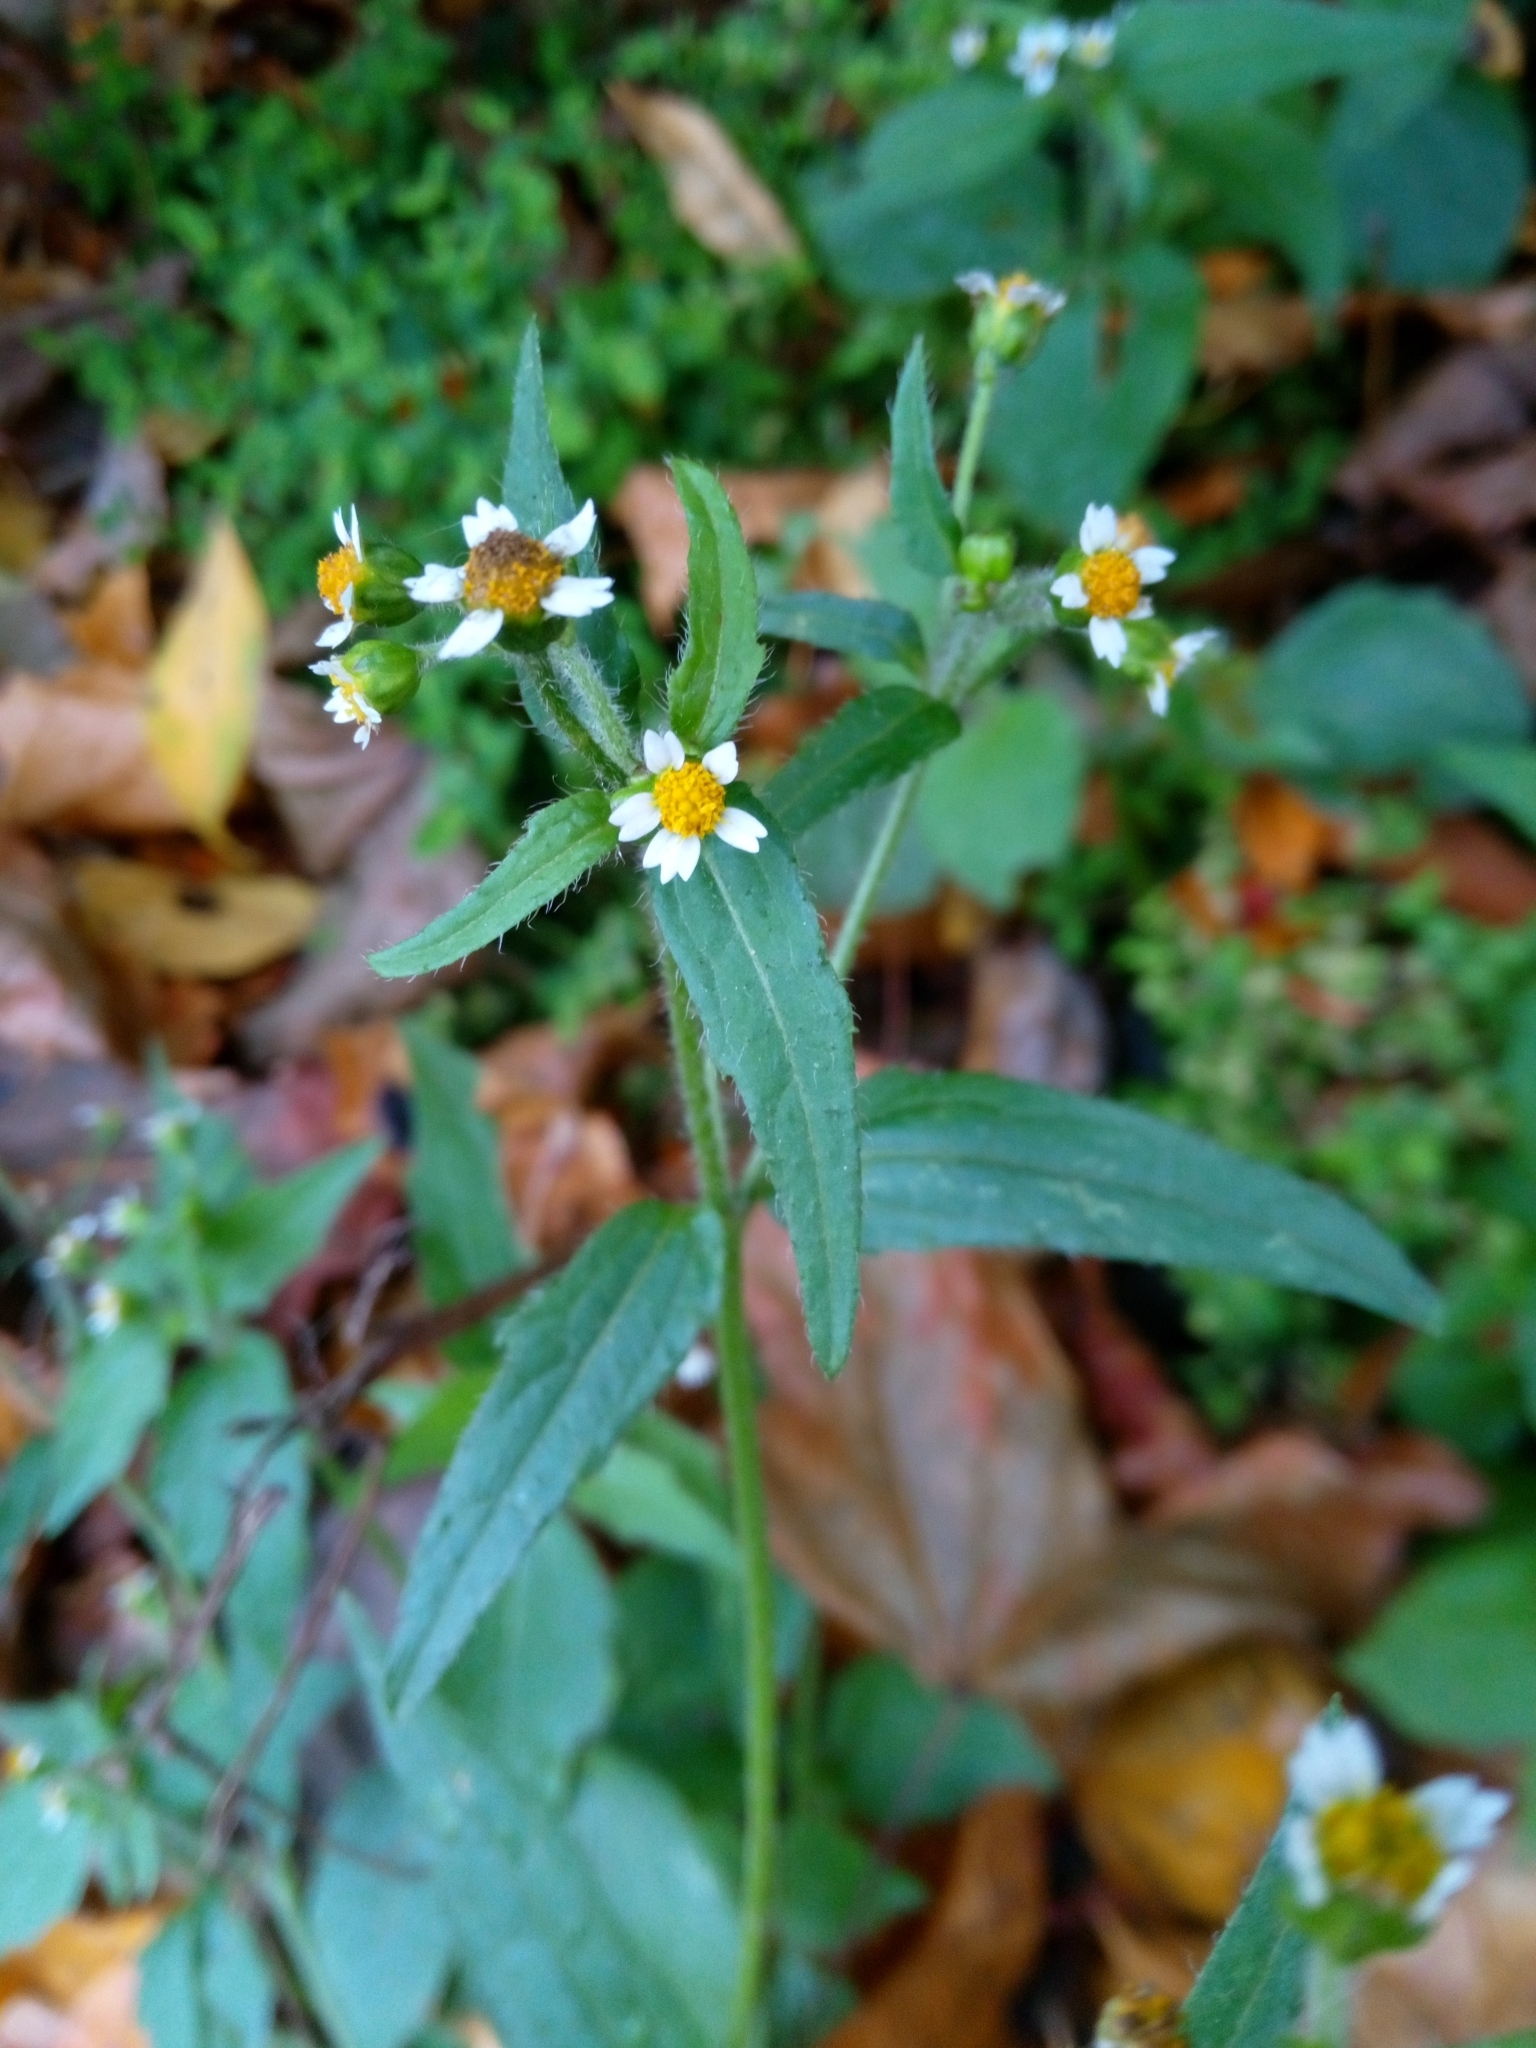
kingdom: Plantae
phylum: Tracheophyta
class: Magnoliopsida
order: Asterales
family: Asteraceae
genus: Galinsoga
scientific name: Galinsoga quadriradiata
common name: Shaggy soldier
